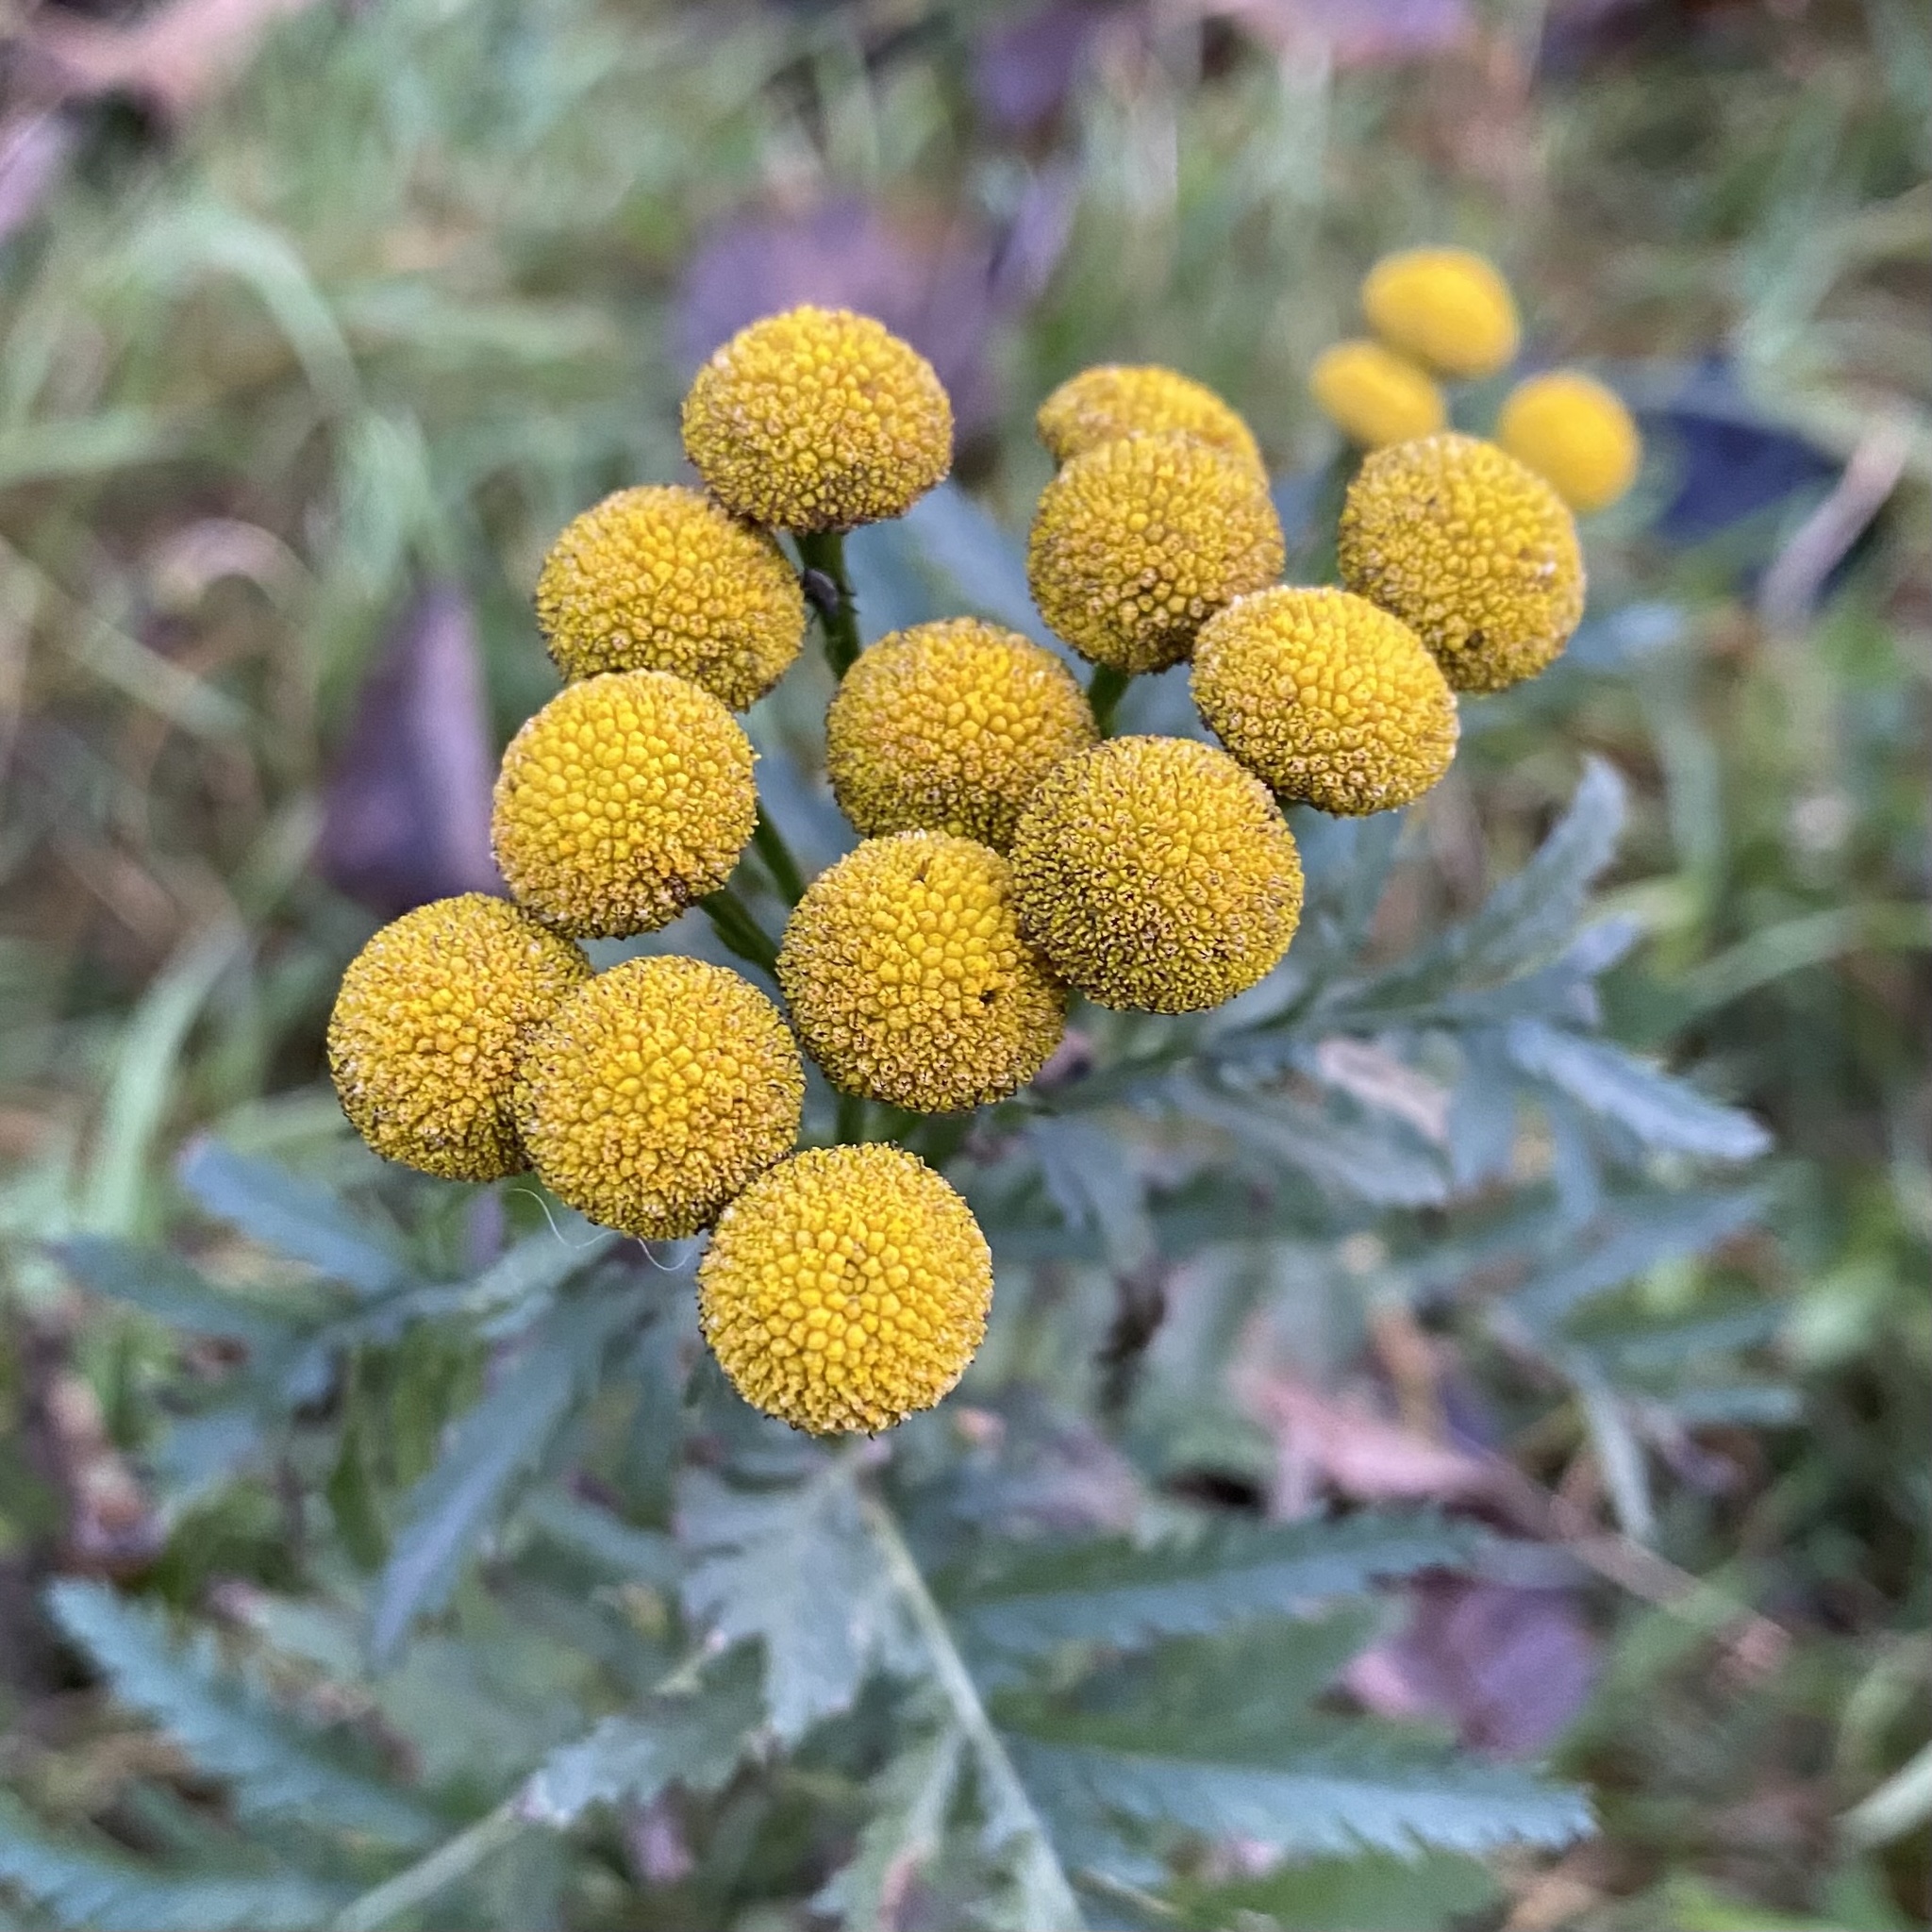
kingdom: Plantae
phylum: Tracheophyta
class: Magnoliopsida
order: Asterales
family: Asteraceae
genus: Tanacetum
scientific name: Tanacetum vulgare
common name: Common tansy
